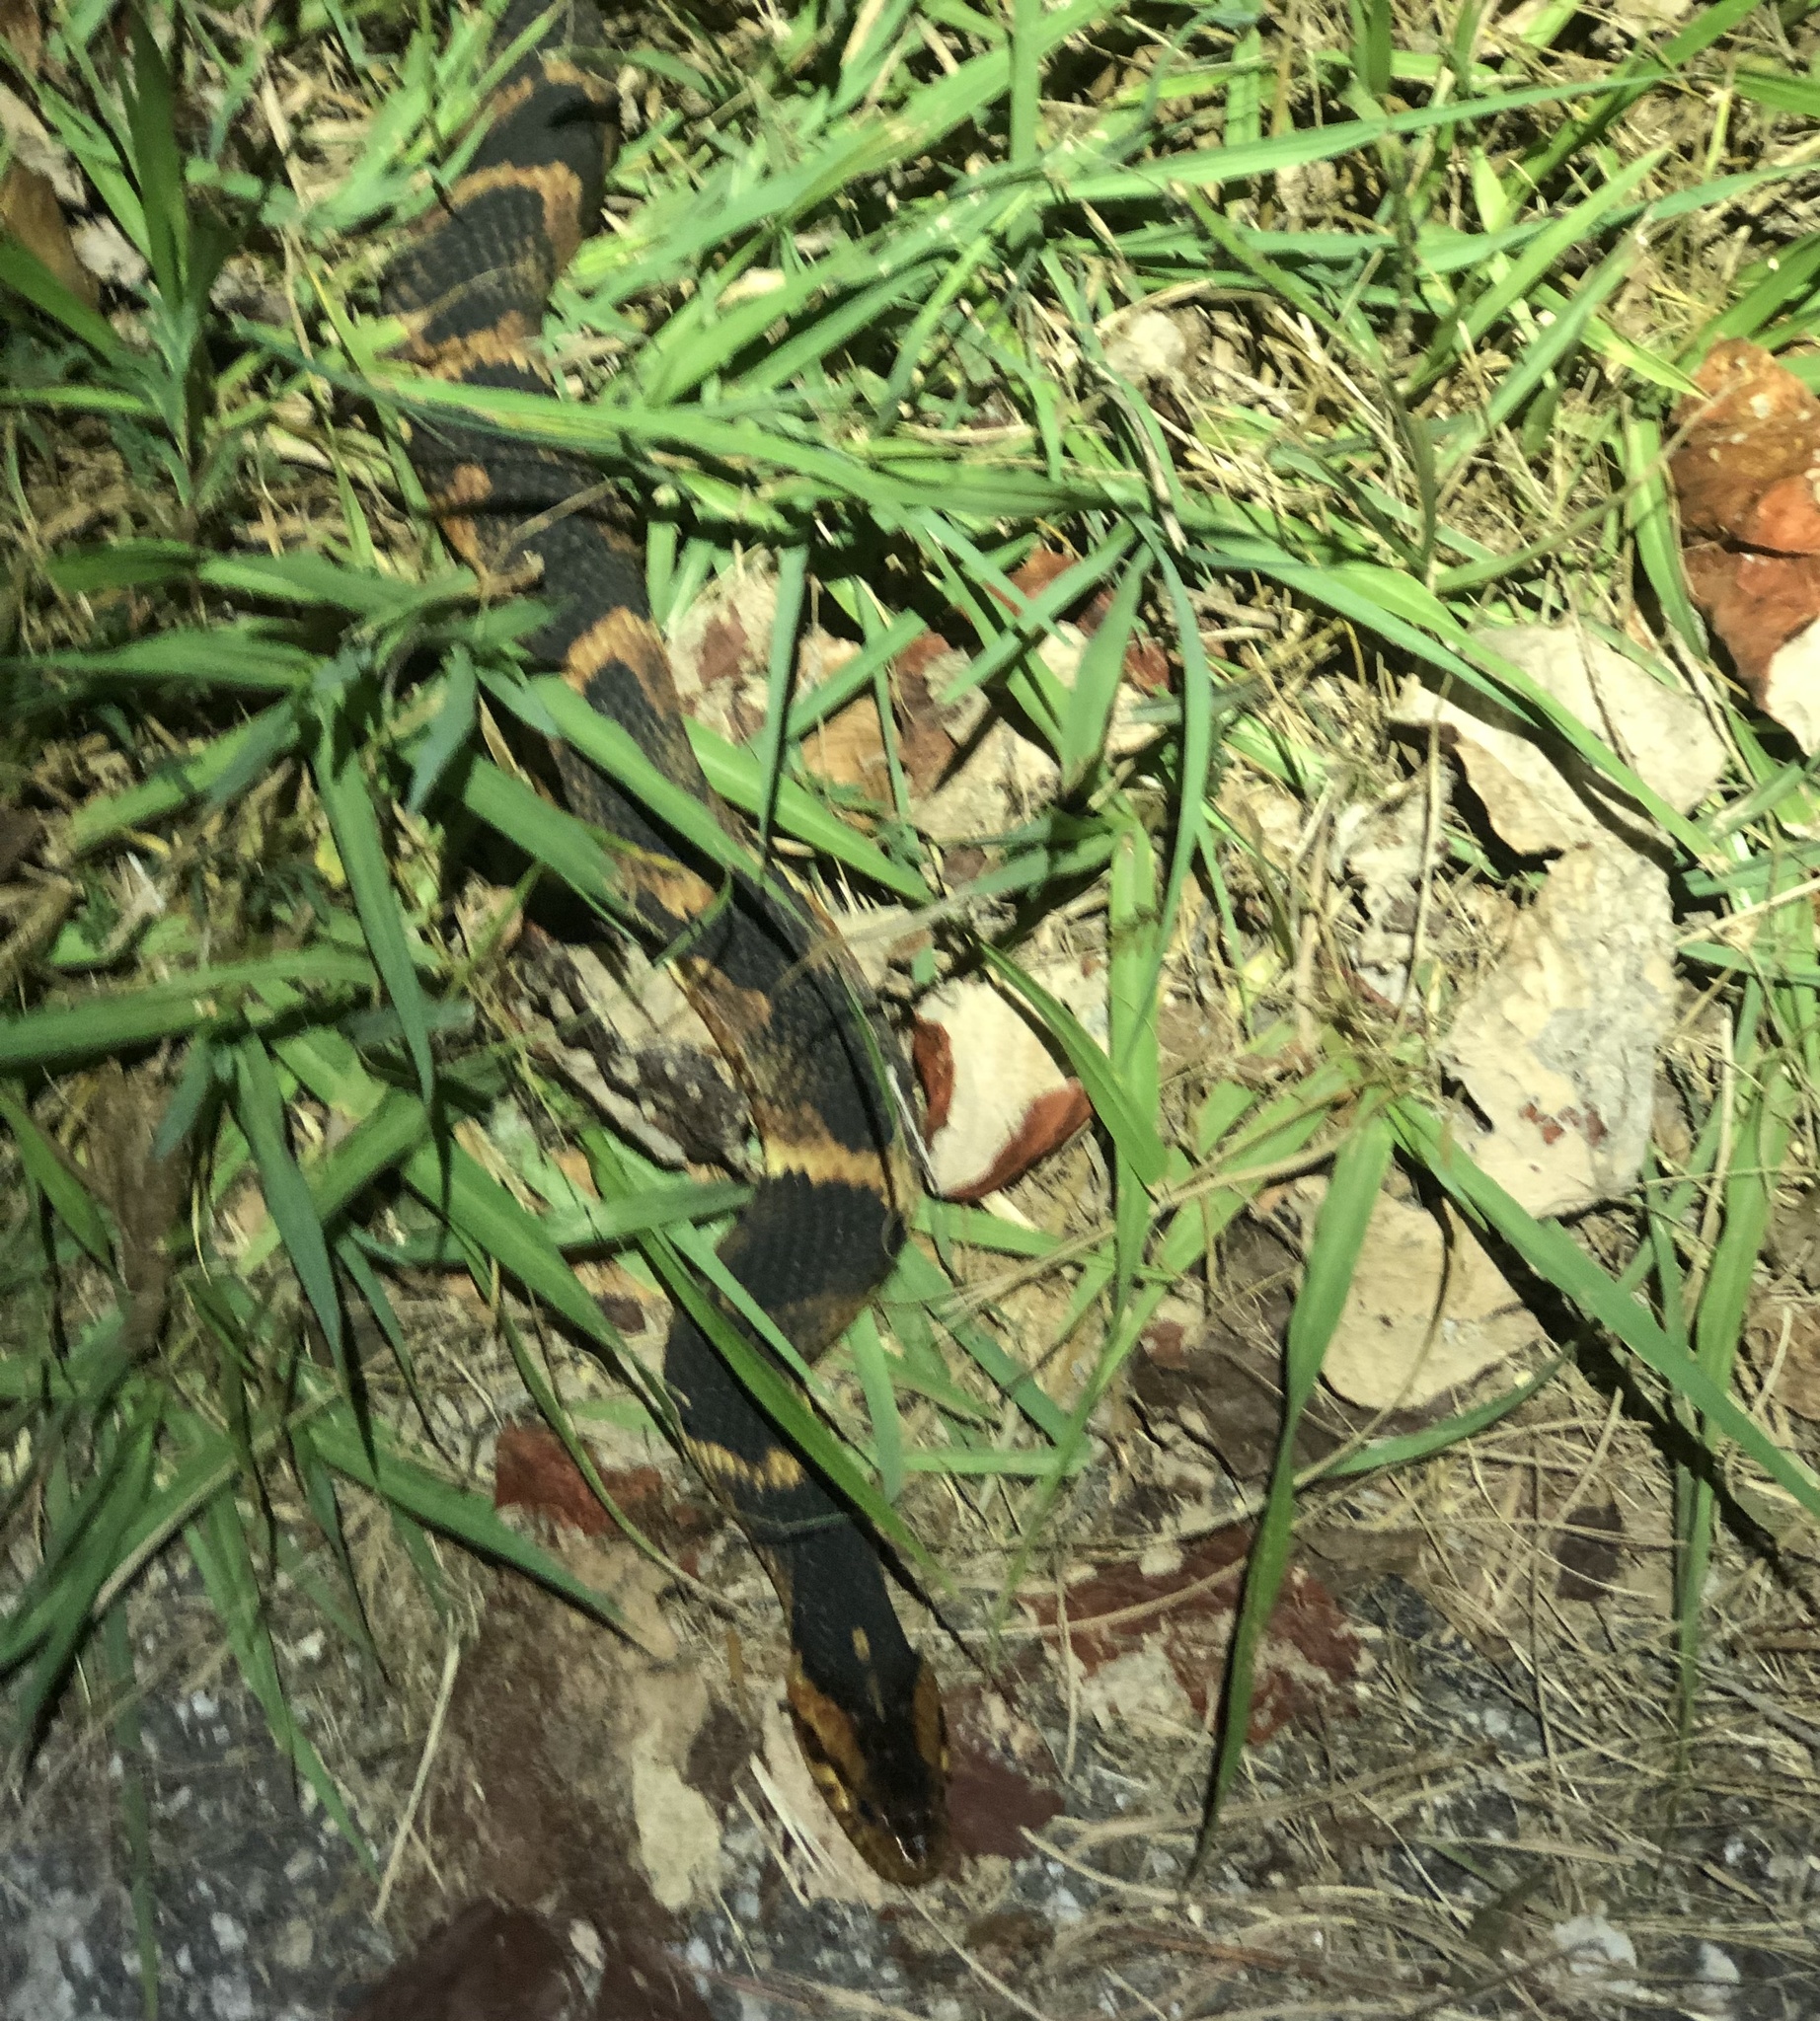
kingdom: Animalia
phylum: Chordata
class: Squamata
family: Colubridae
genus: Nerodia
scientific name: Nerodia fasciata
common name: Southern water snake
